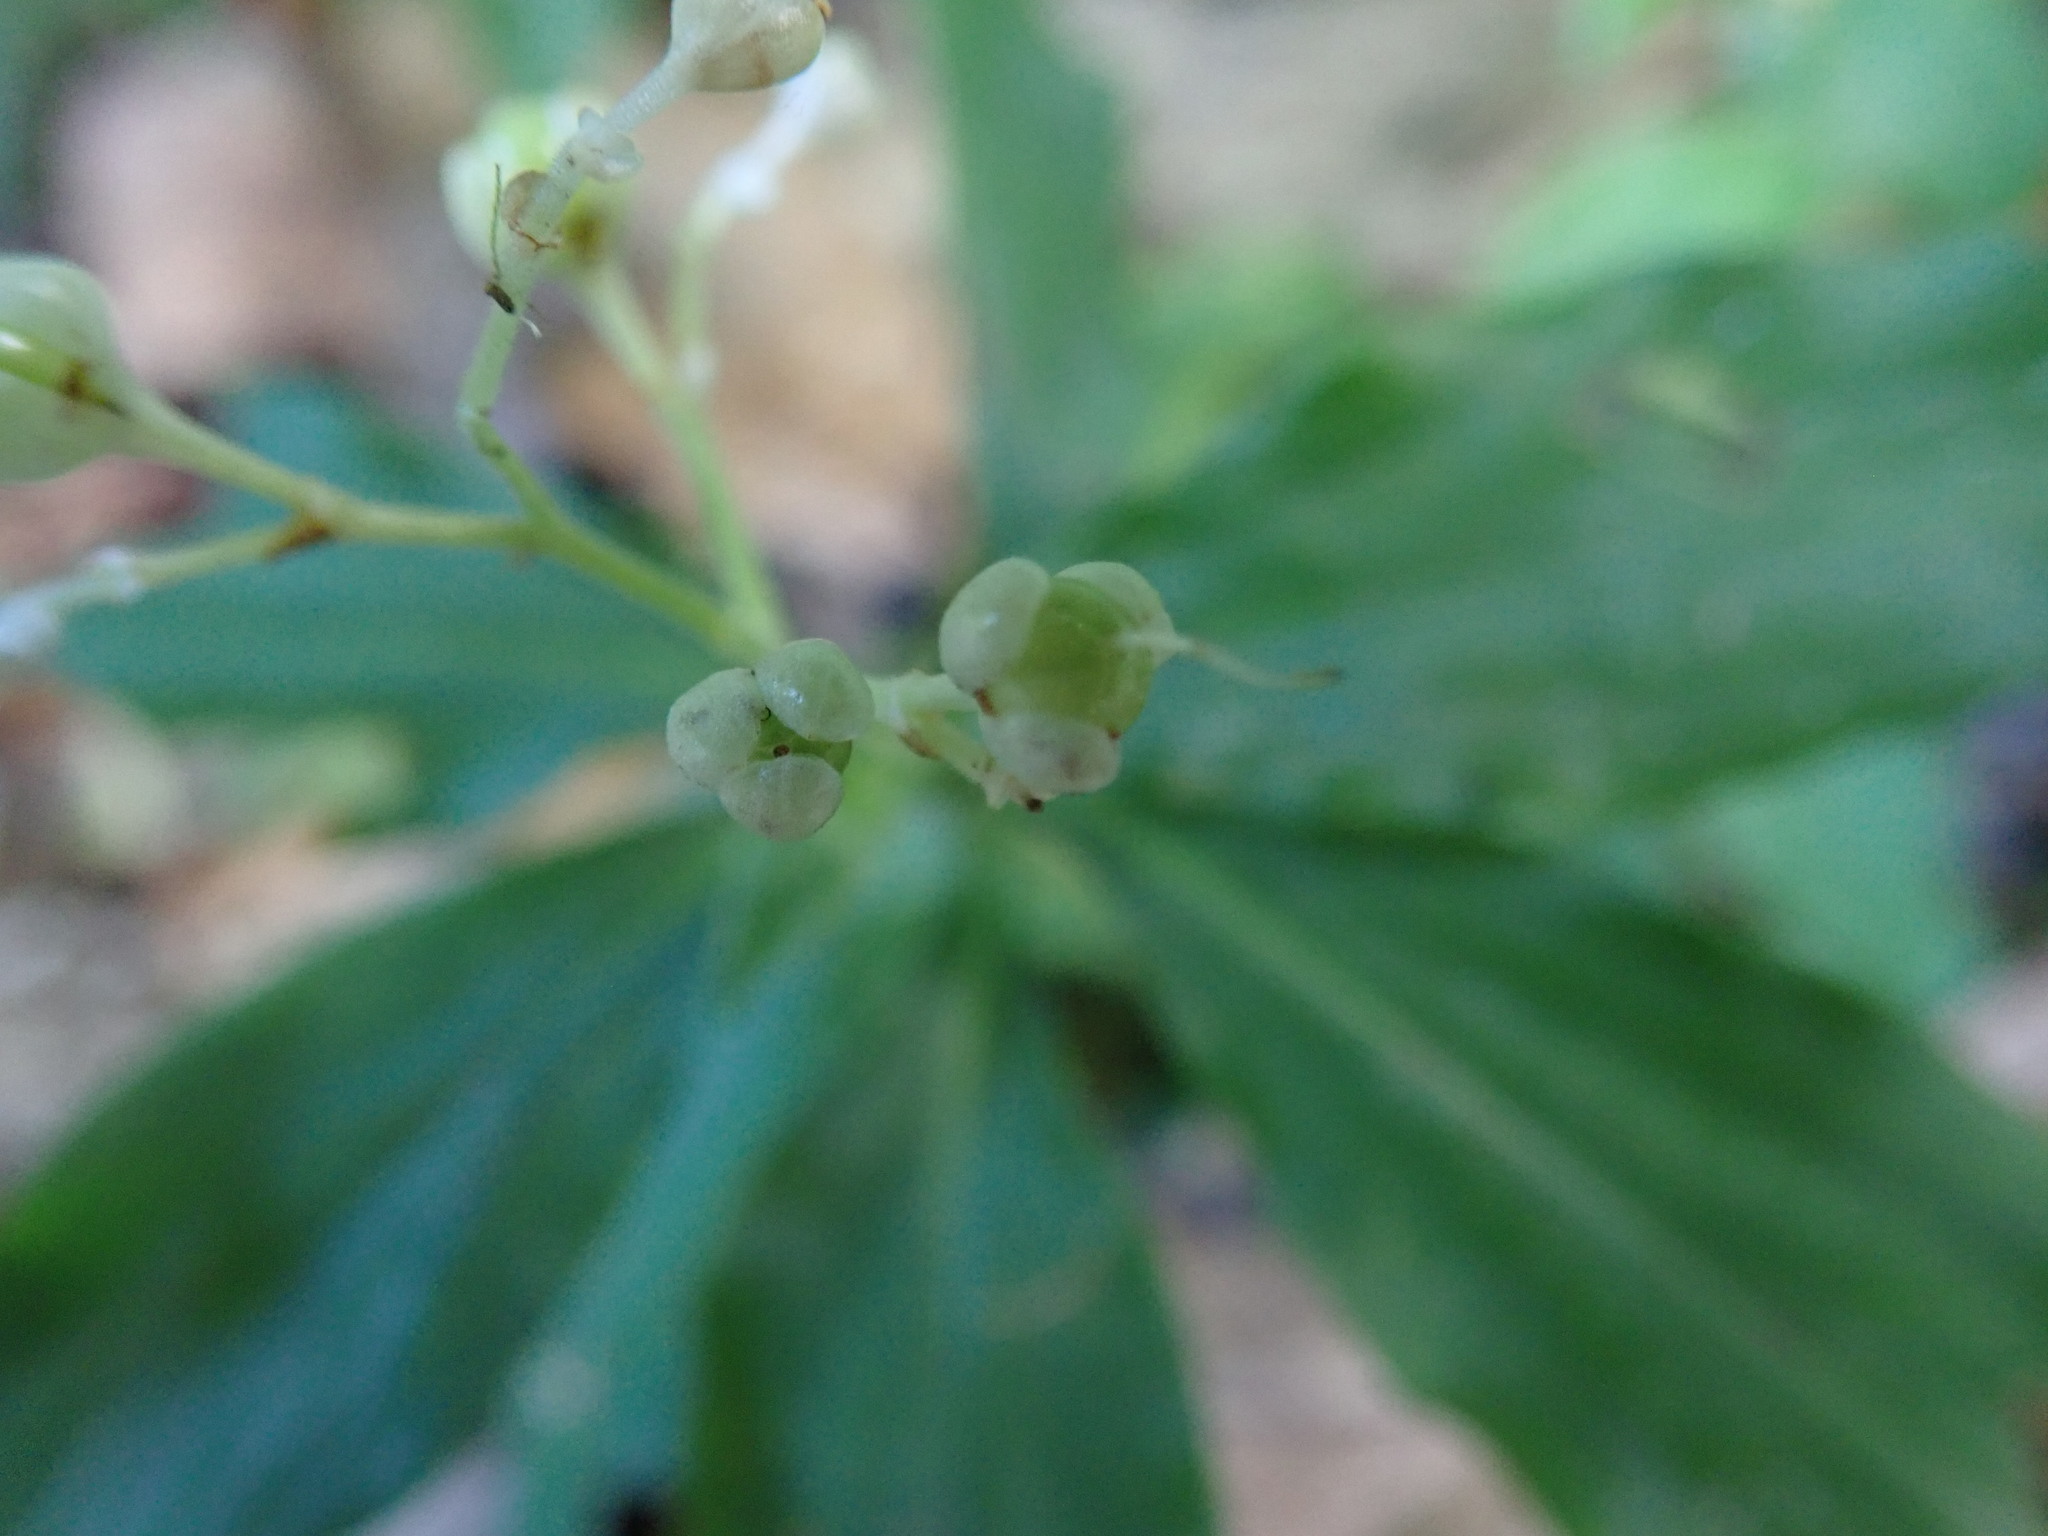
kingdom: Plantae
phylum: Tracheophyta
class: Liliopsida
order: Commelinales
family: Commelinaceae
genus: Pollia
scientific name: Pollia miranda
